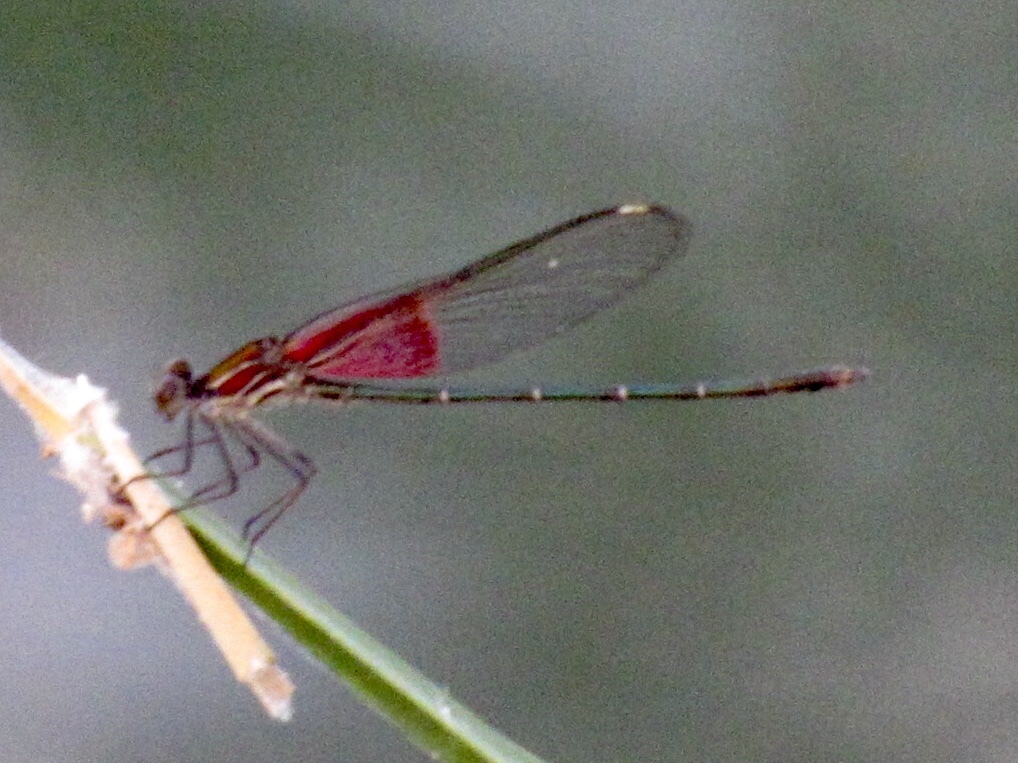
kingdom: Animalia
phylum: Arthropoda
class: Insecta
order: Odonata
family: Calopterygidae
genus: Hetaerina
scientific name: Hetaerina americana
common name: American rubyspot
